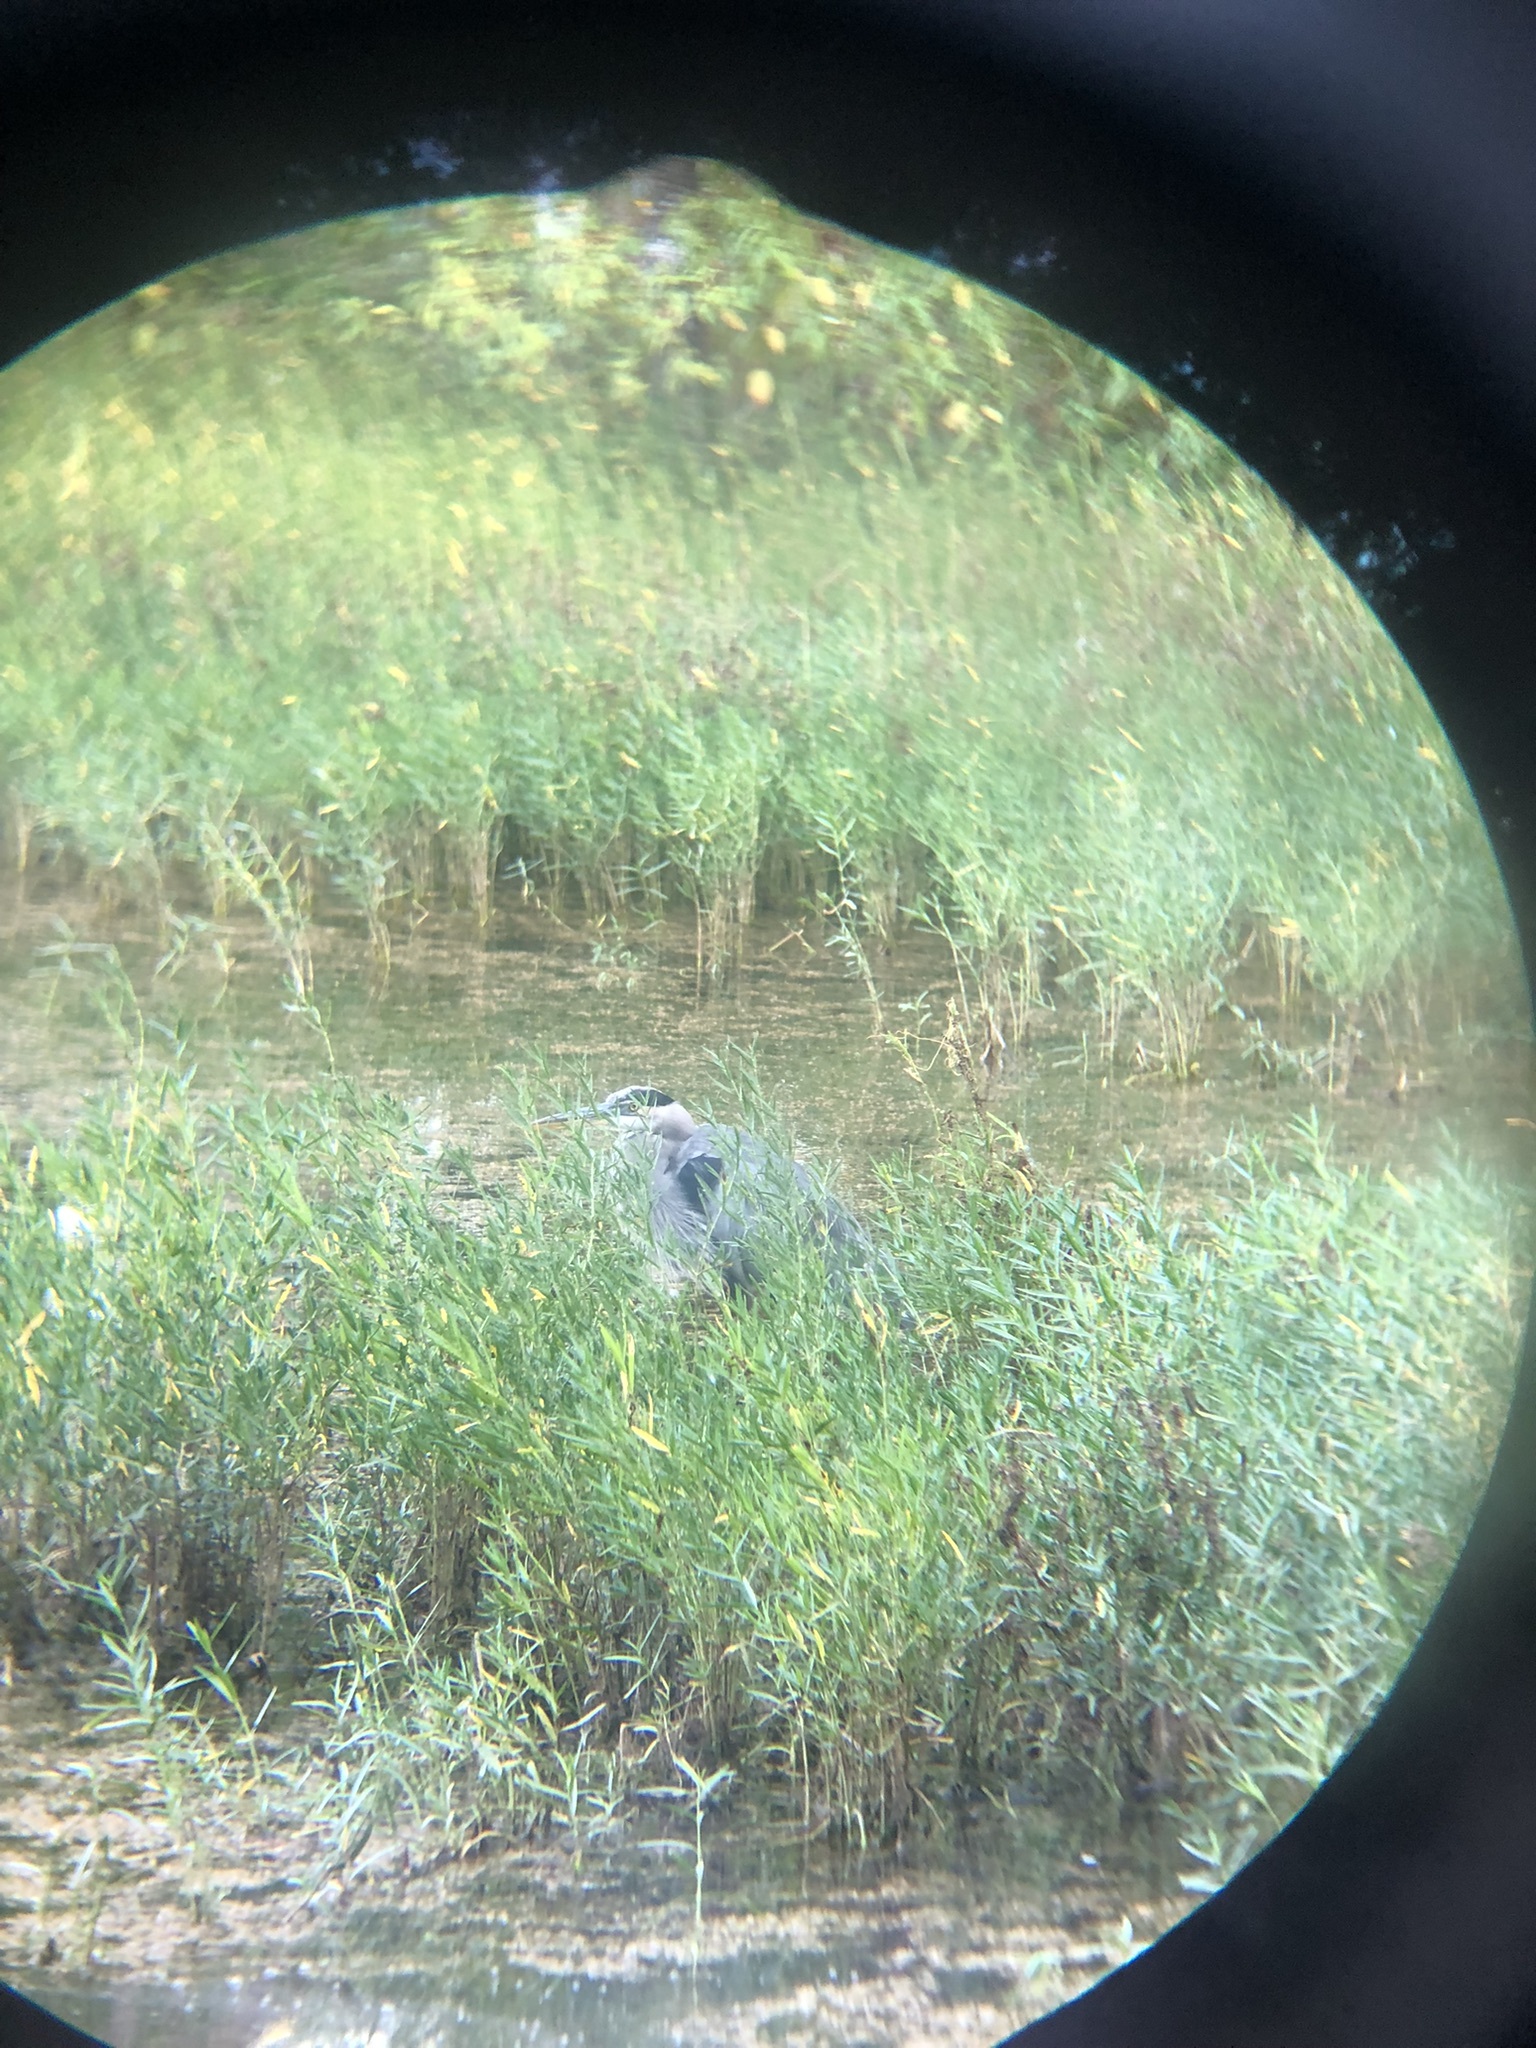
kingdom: Animalia
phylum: Chordata
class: Aves
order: Pelecaniformes
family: Ardeidae
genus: Ardea
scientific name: Ardea herodias
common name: Great blue heron
